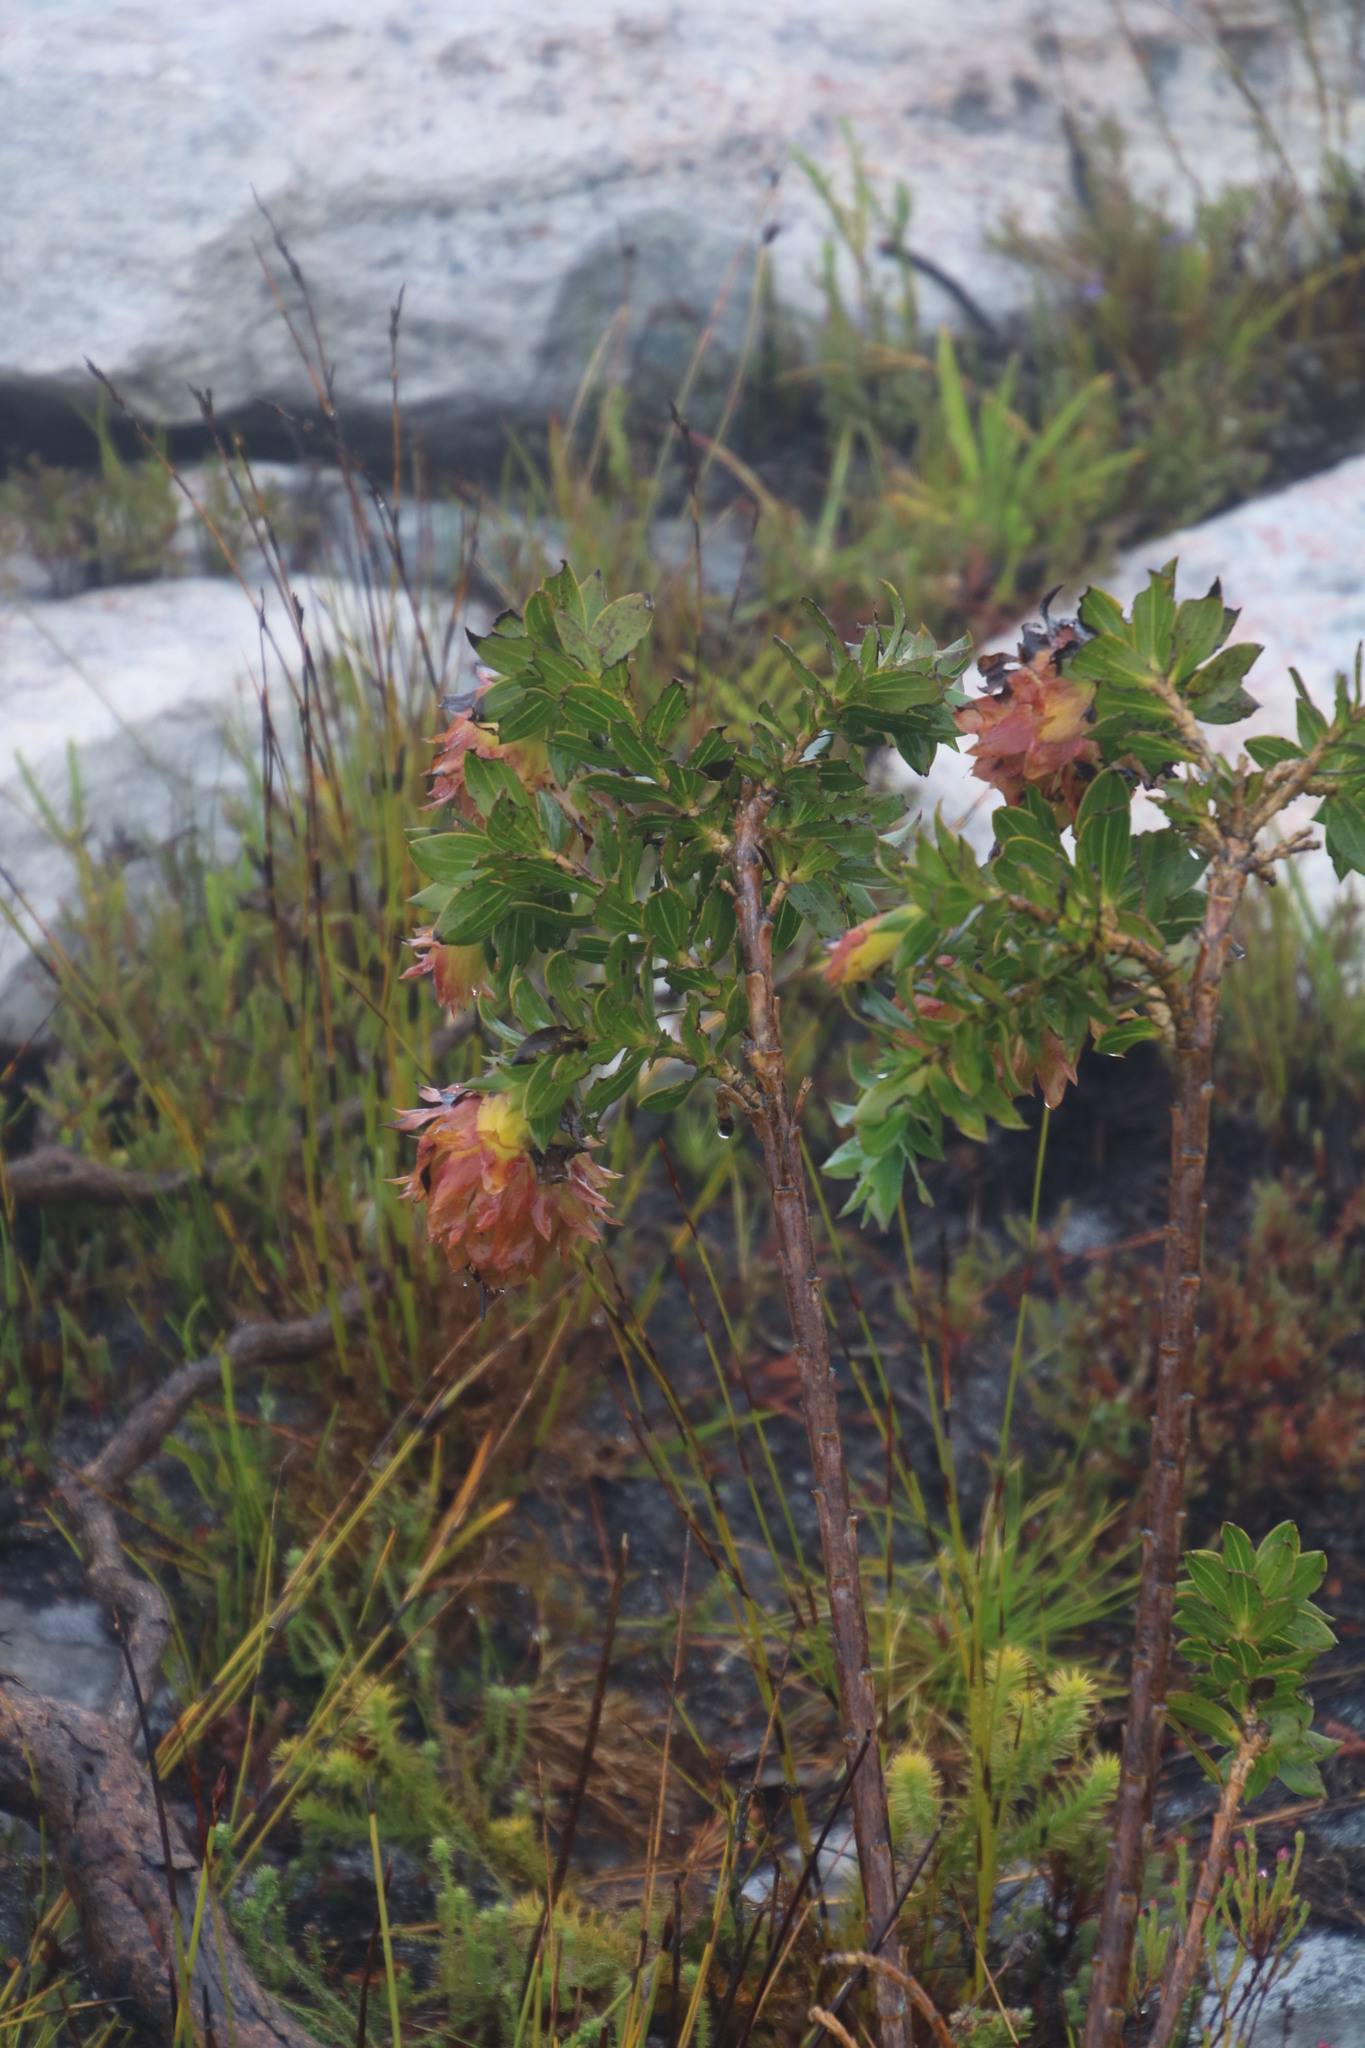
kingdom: Plantae
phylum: Tracheophyta
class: Magnoliopsida
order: Fabales
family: Fabaceae
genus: Liparia
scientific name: Liparia splendens
